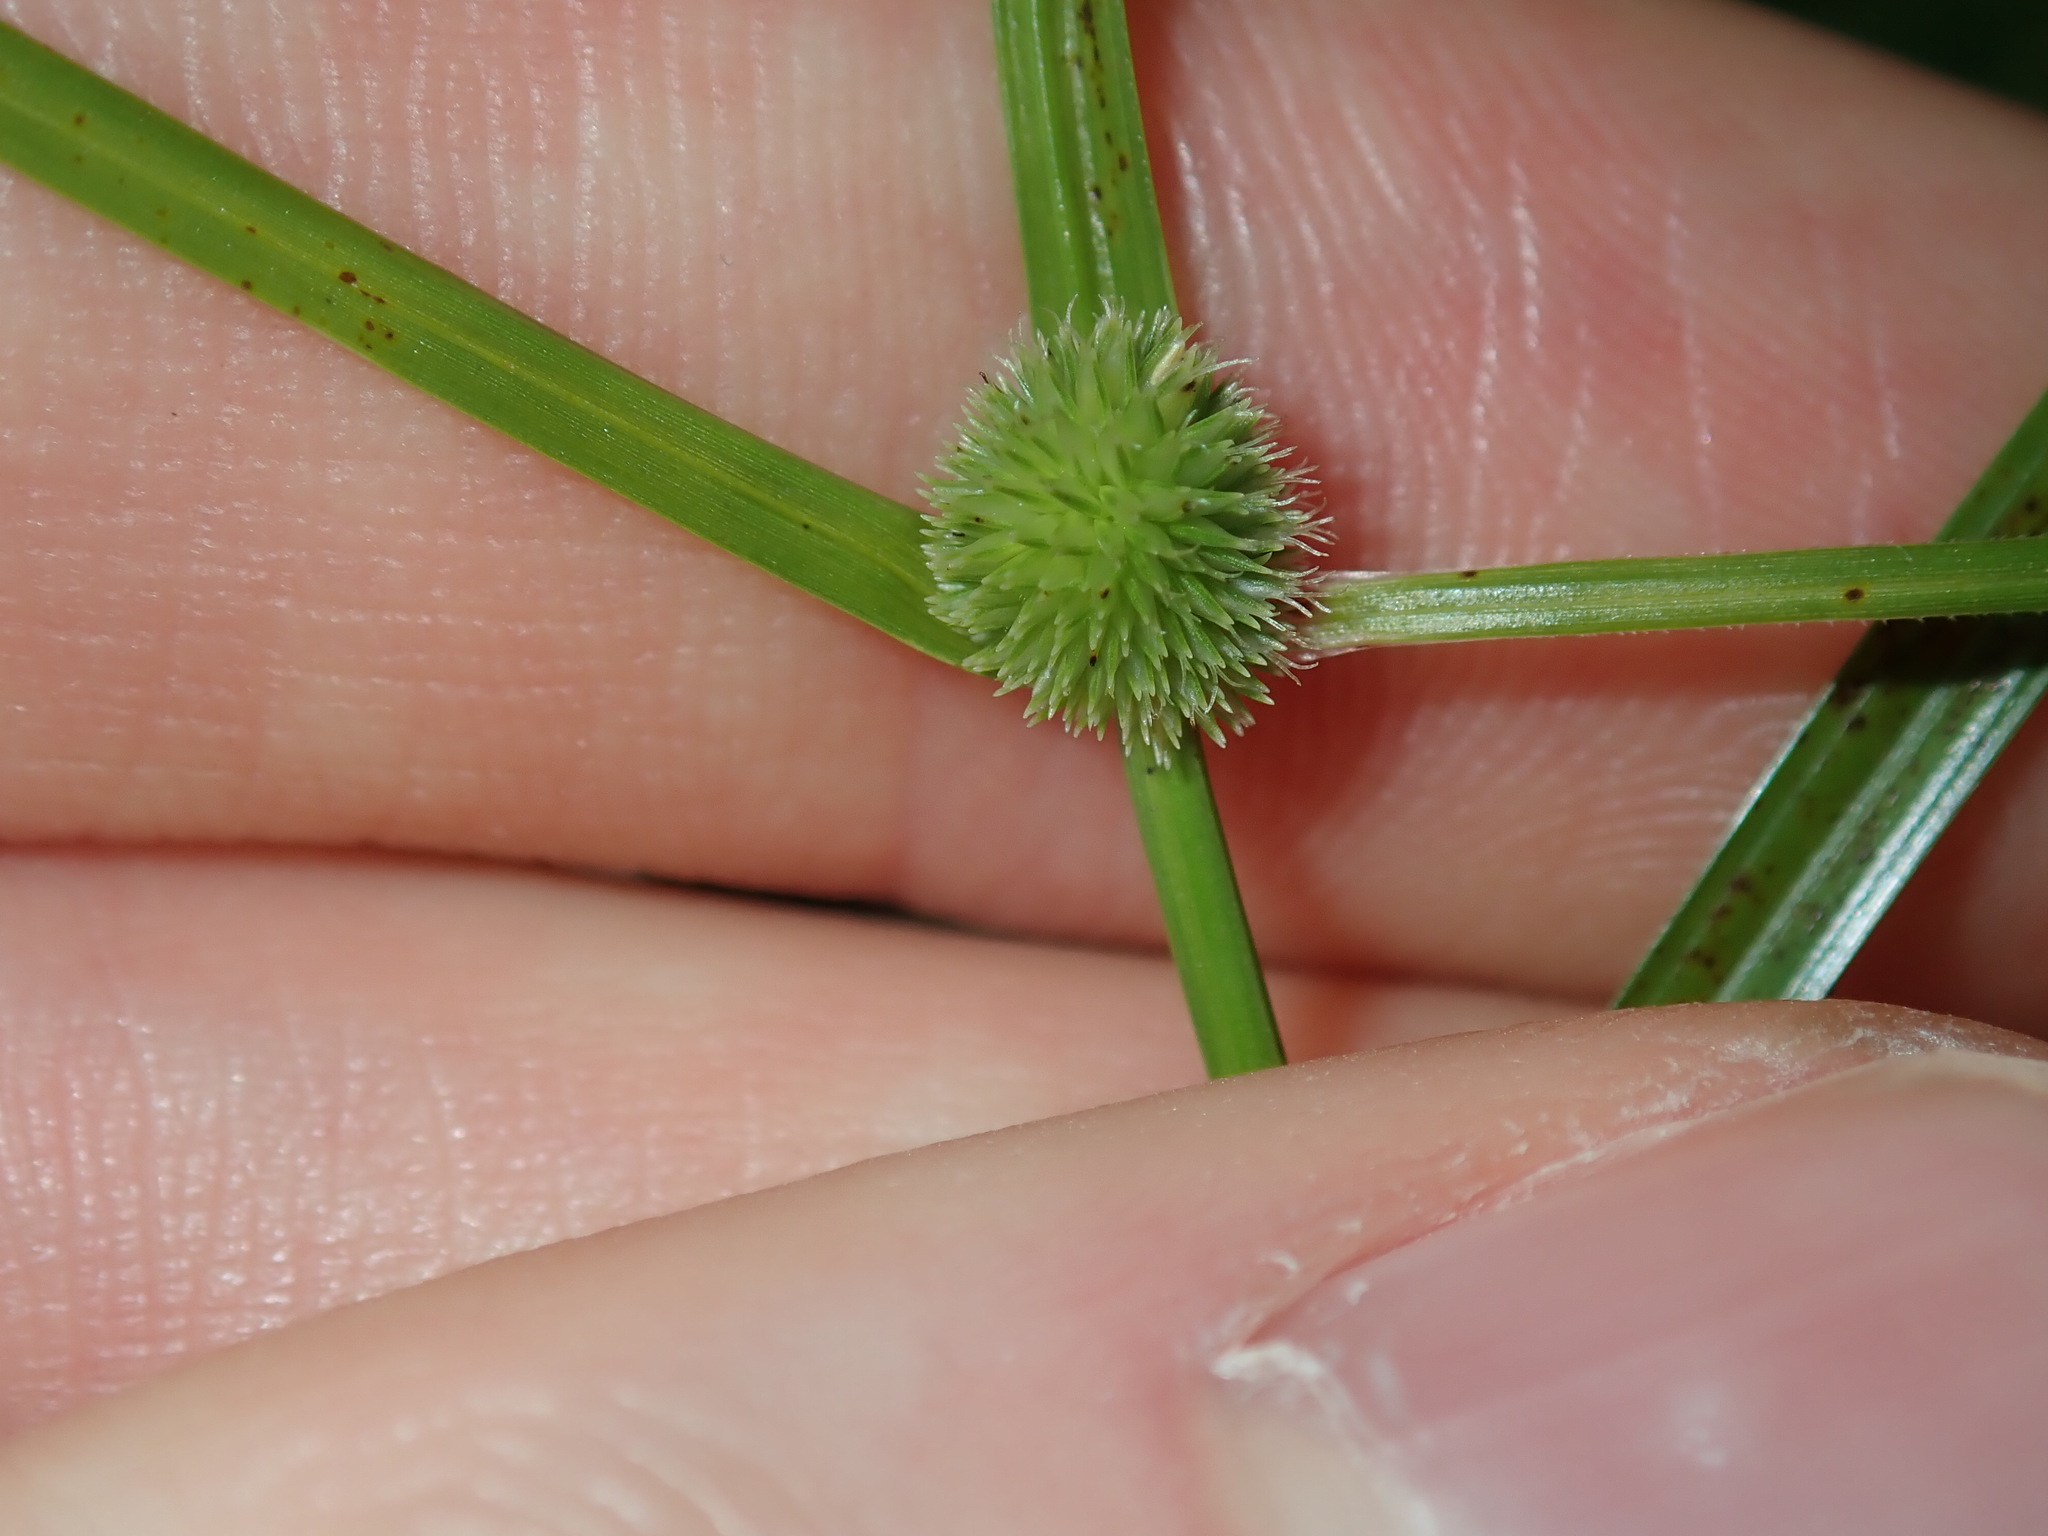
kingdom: Plantae
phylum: Tracheophyta
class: Liliopsida
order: Poales
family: Cyperaceae
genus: Cyperus
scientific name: Cyperus brevifolius
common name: Globe kyllinga
